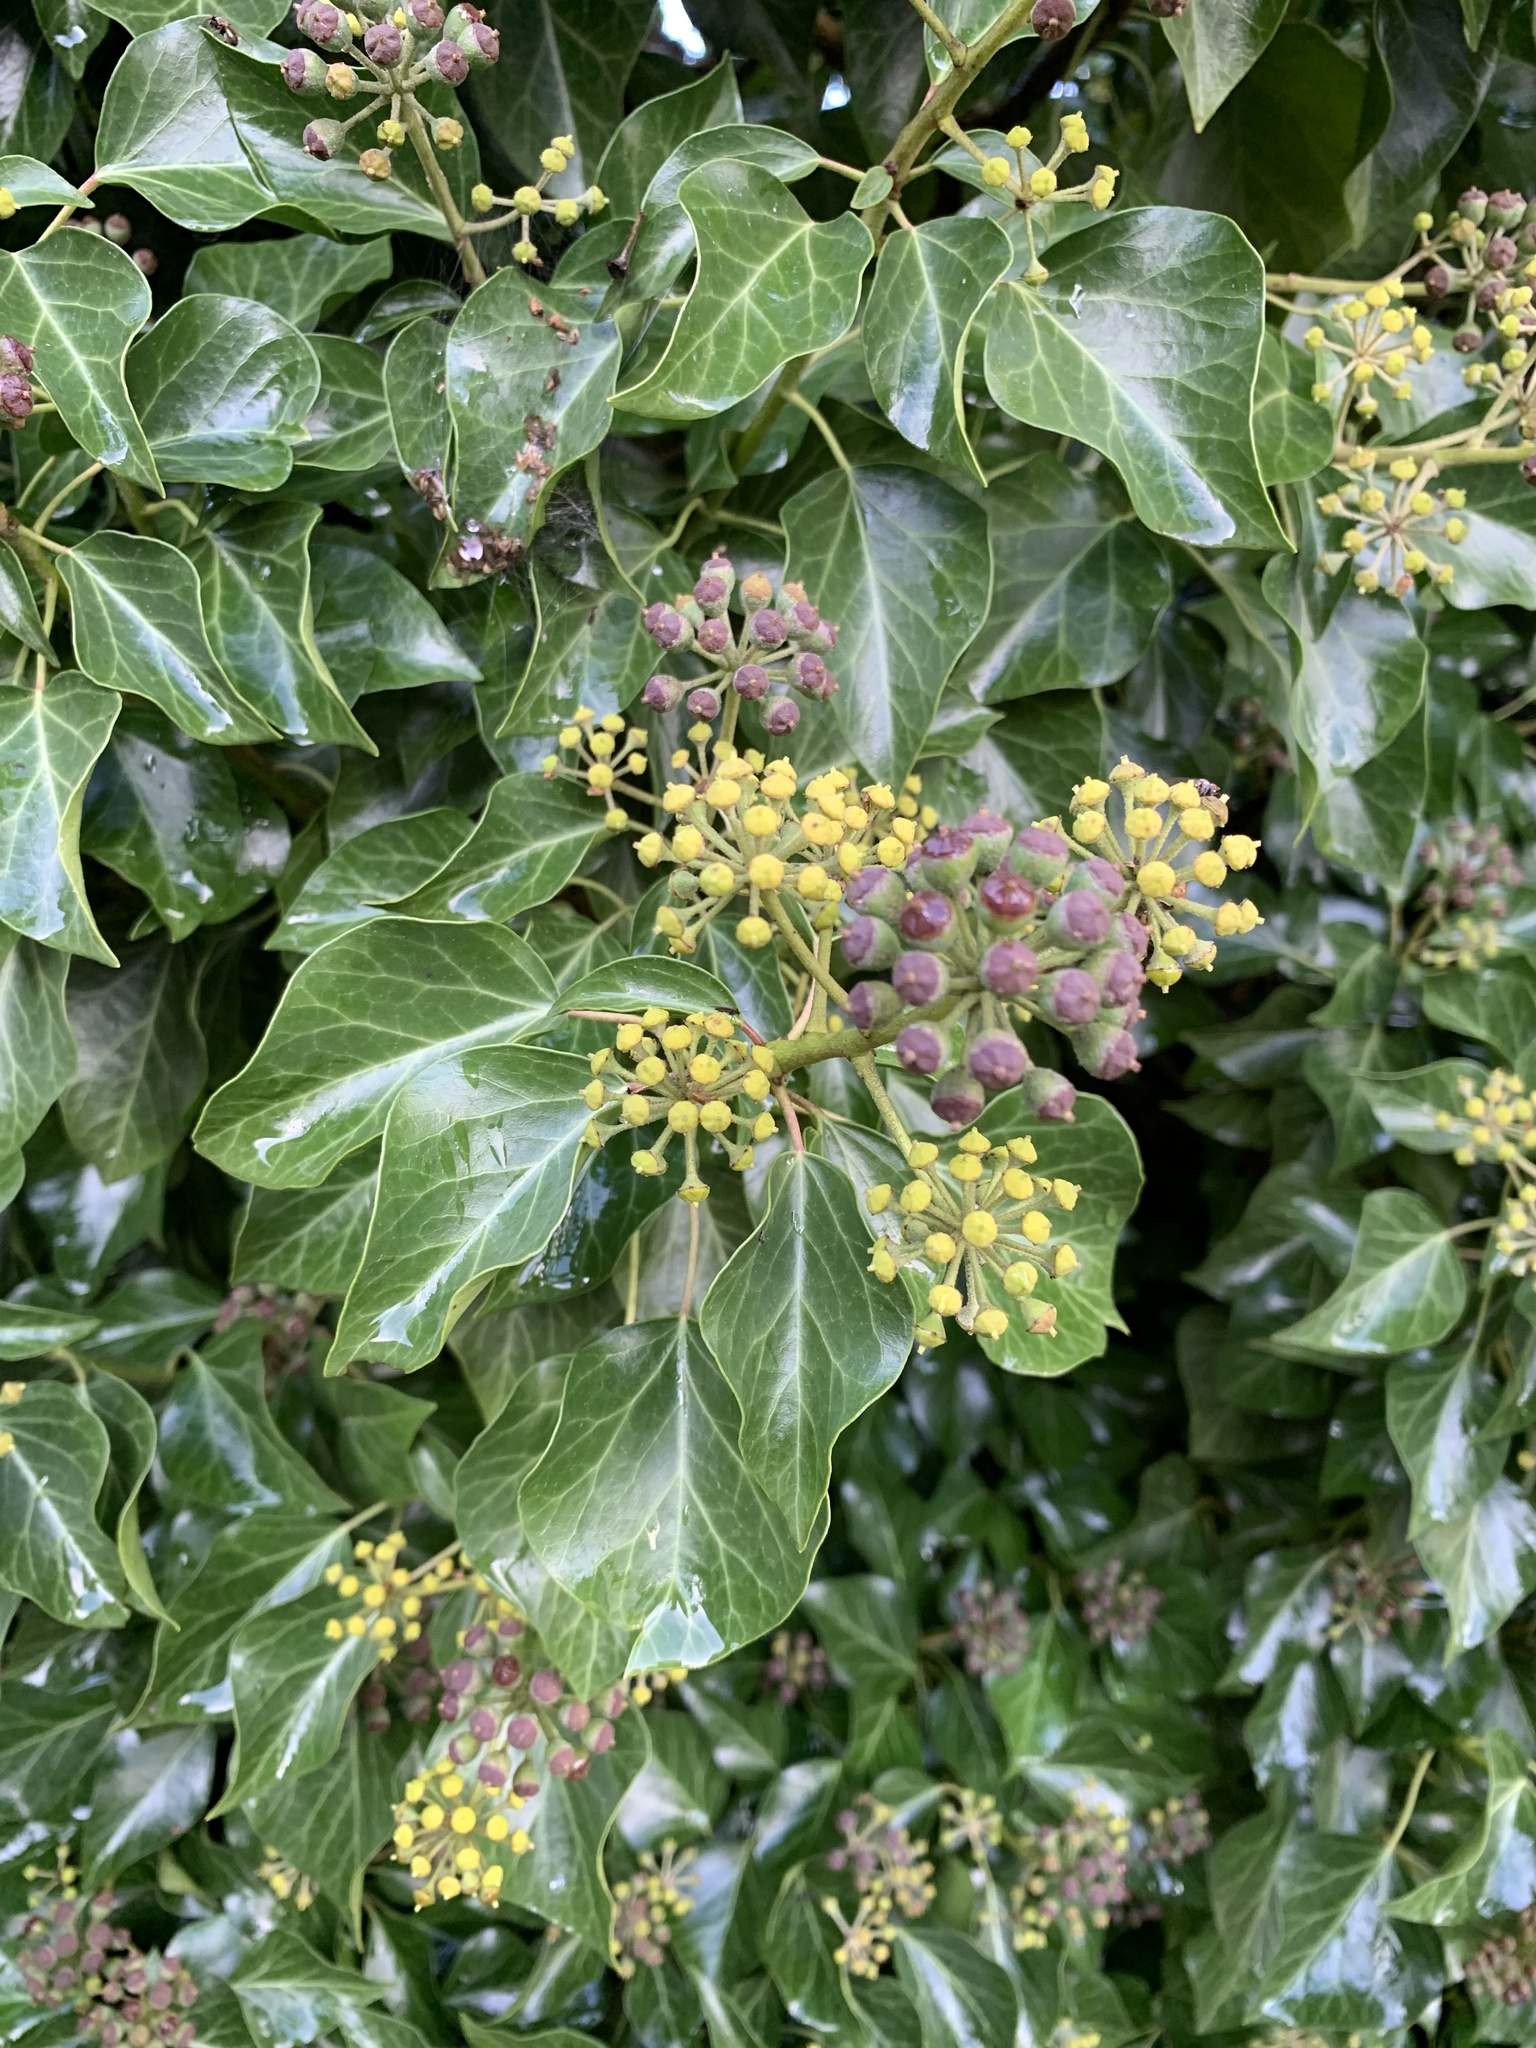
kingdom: Plantae
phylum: Tracheophyta
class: Magnoliopsida
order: Apiales
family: Araliaceae
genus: Hedera
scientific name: Hedera helix
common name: Ivy
